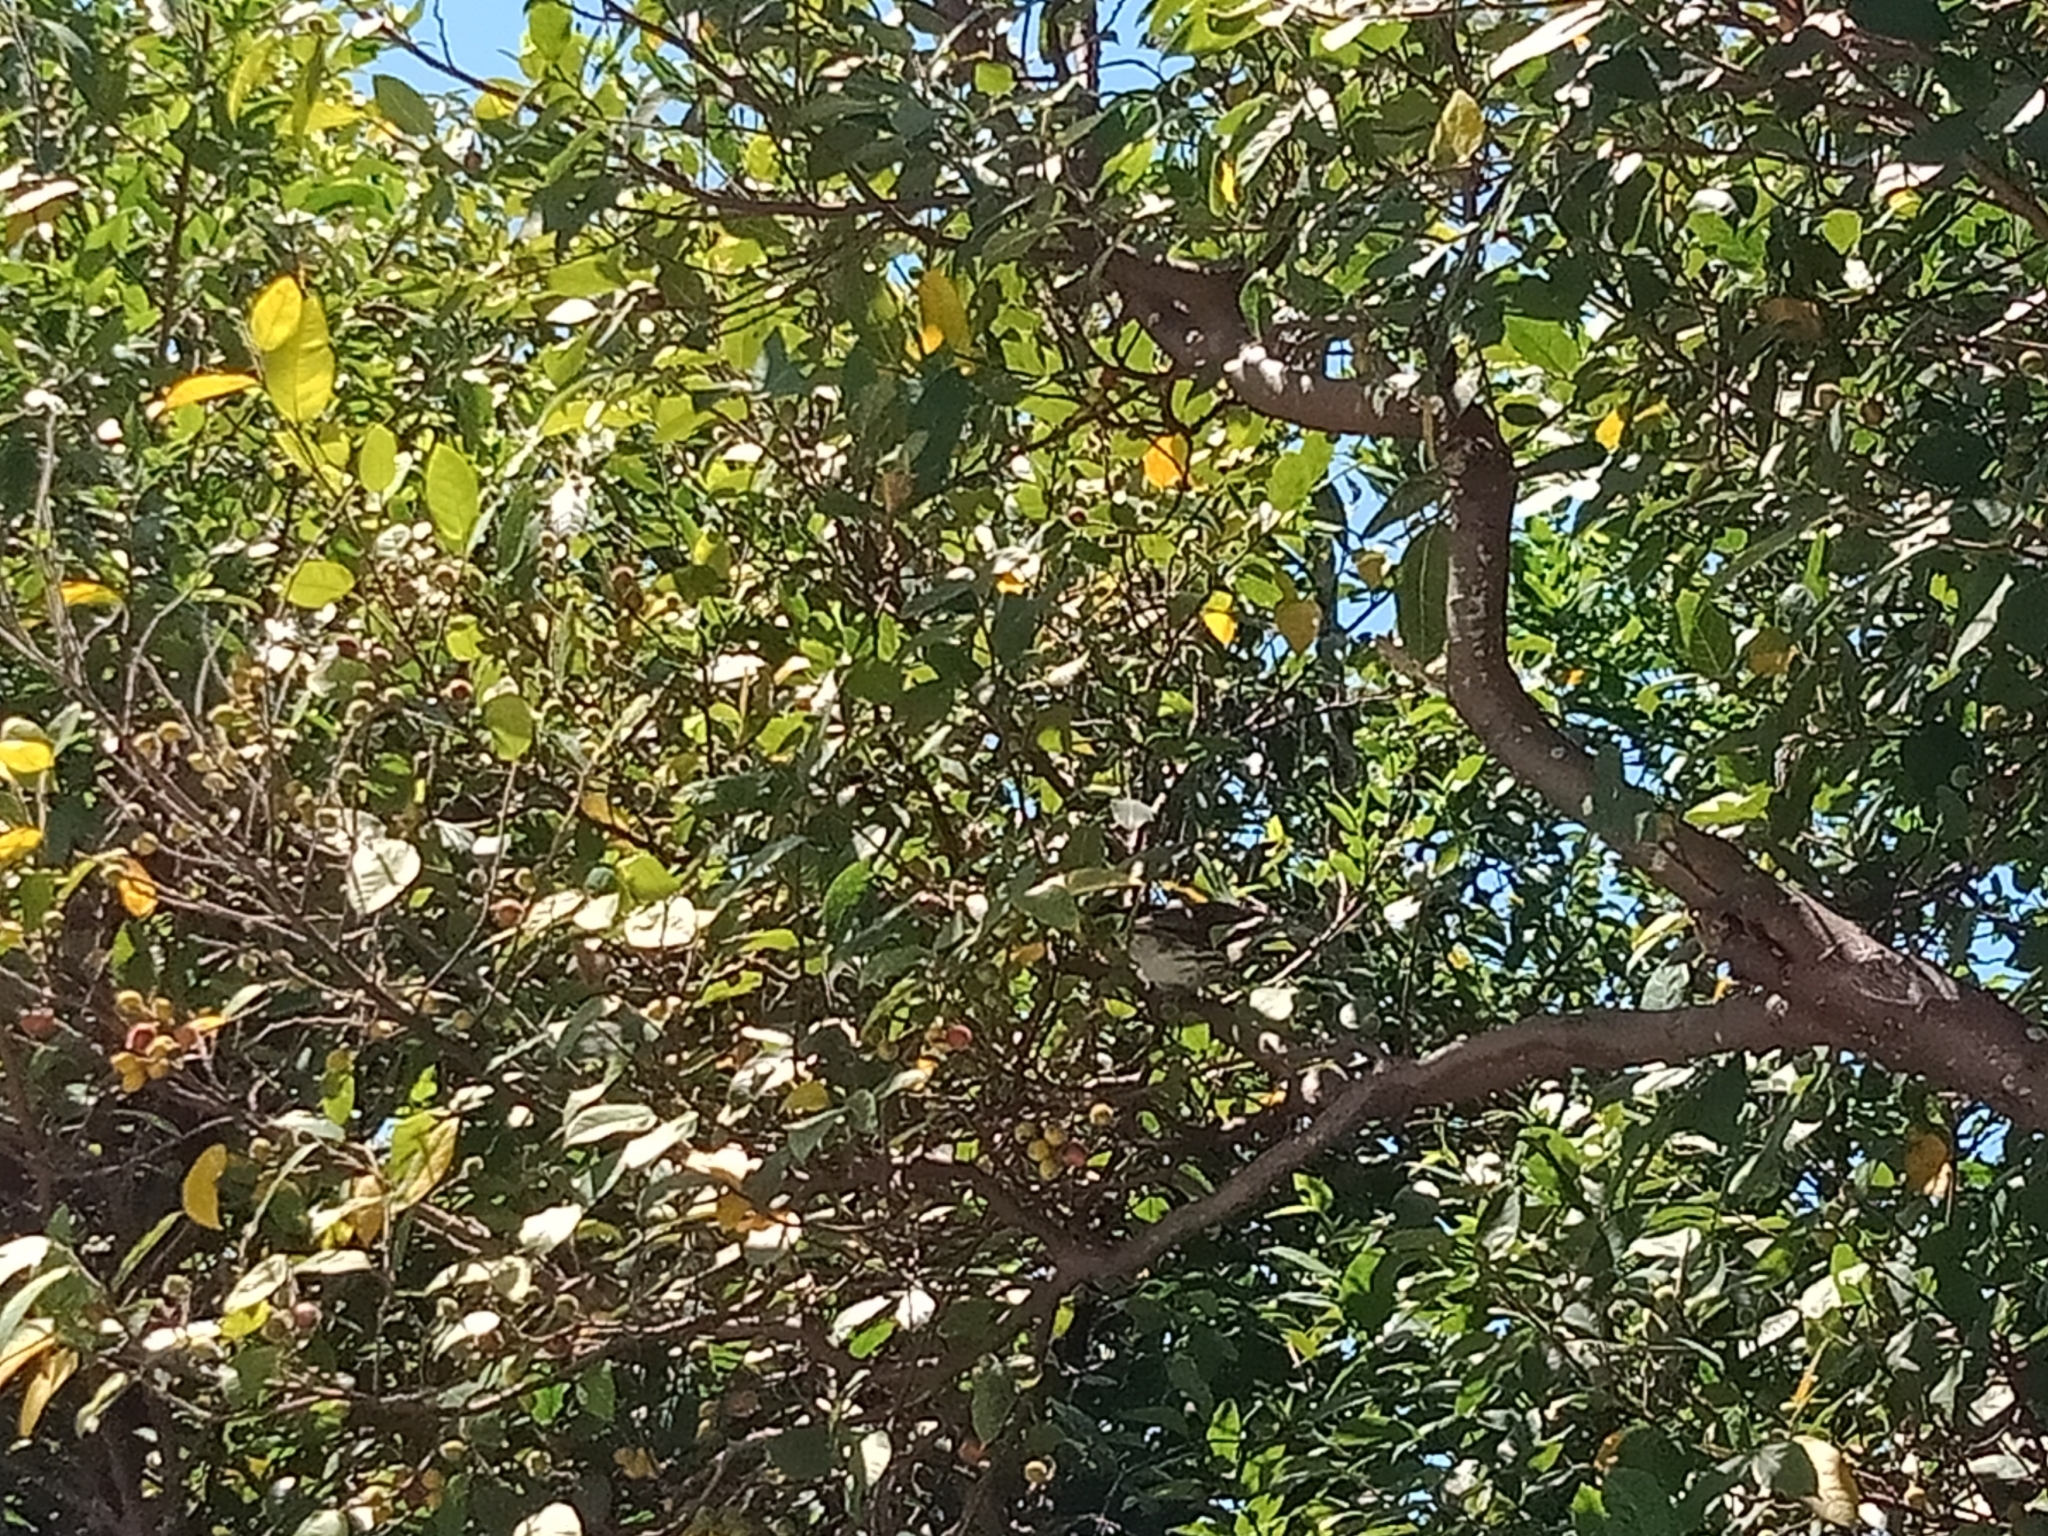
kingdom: Animalia
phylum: Chordata
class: Aves
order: Passeriformes
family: Oriolidae
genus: Sphecotheres
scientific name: Sphecotheres vieilloti
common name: Australasian figbird
